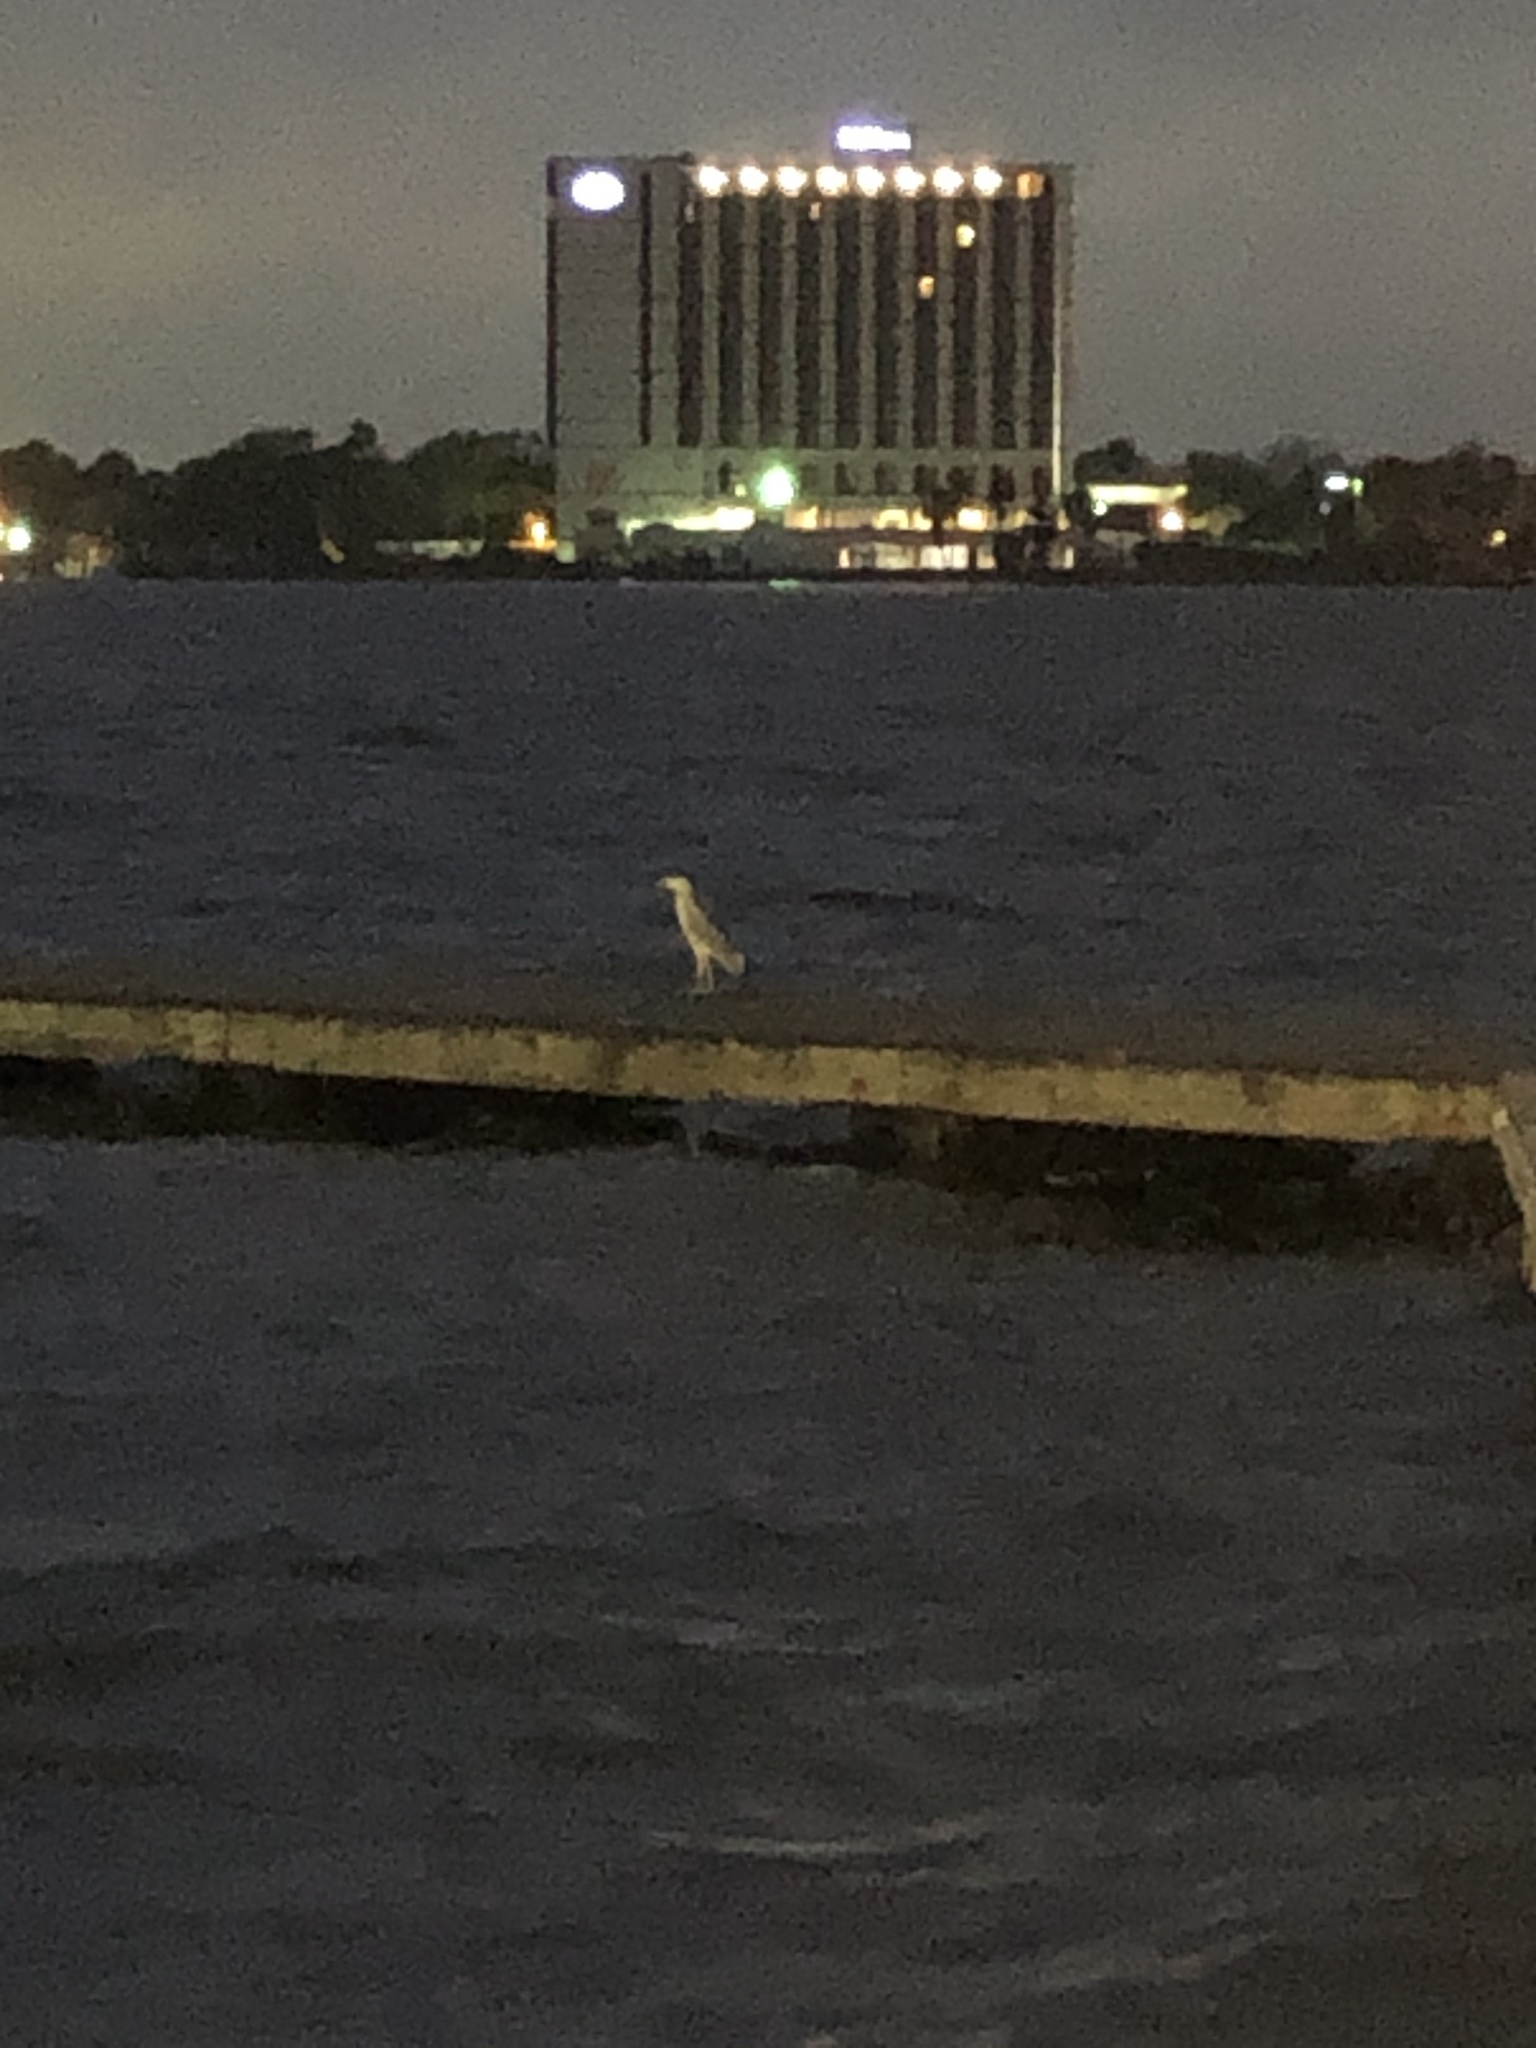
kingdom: Animalia
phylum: Chordata
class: Aves
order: Pelecaniformes
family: Ardeidae
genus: Nycticorax
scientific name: Nycticorax nycticorax
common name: Black-crowned night heron
